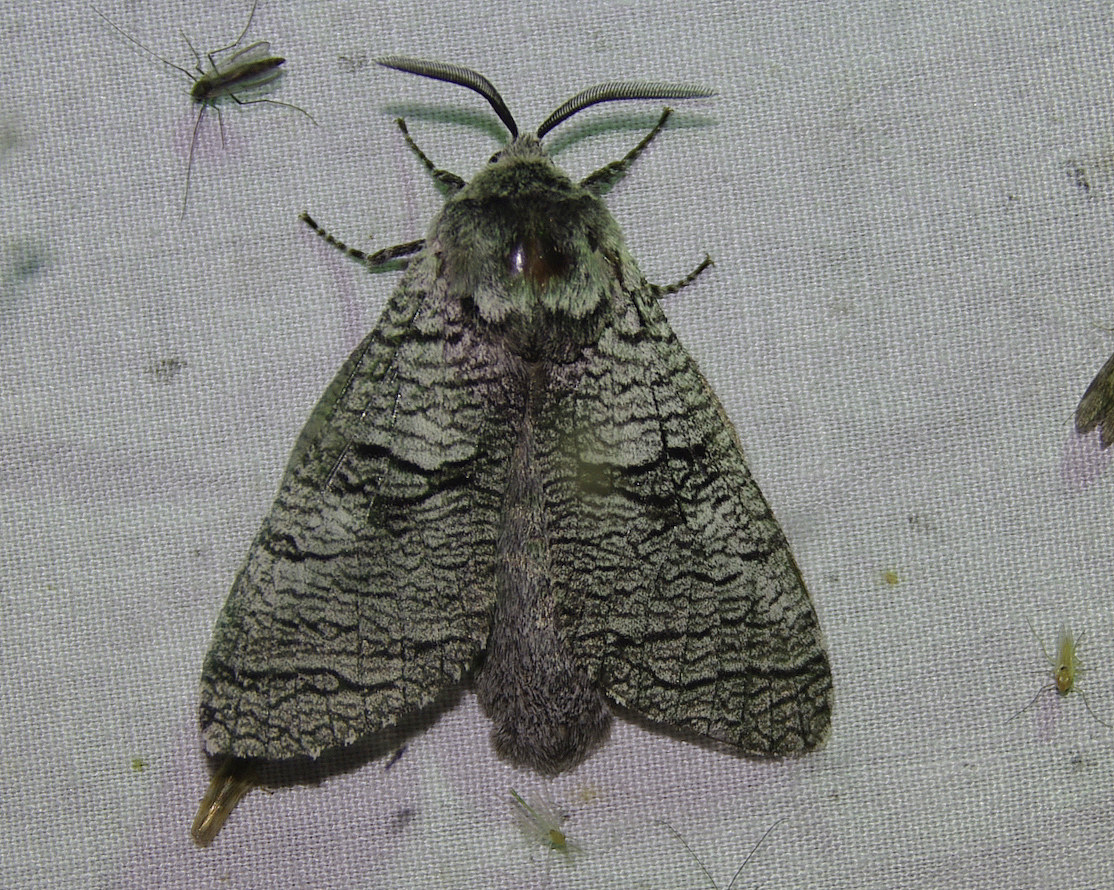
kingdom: Animalia
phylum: Arthropoda
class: Insecta
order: Lepidoptera
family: Cossidae
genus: Acossus
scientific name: Acossus populi
